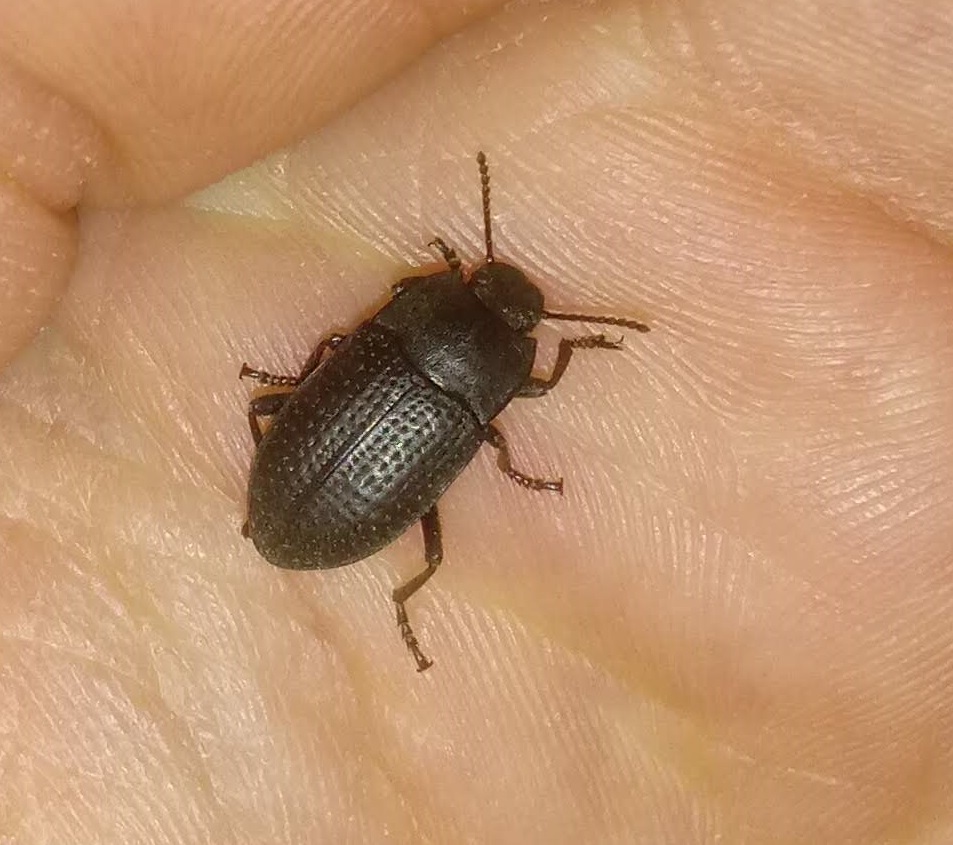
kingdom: Animalia
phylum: Arthropoda
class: Insecta
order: Coleoptera
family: Tenebrionidae
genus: Asiopus
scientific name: Asiopus
